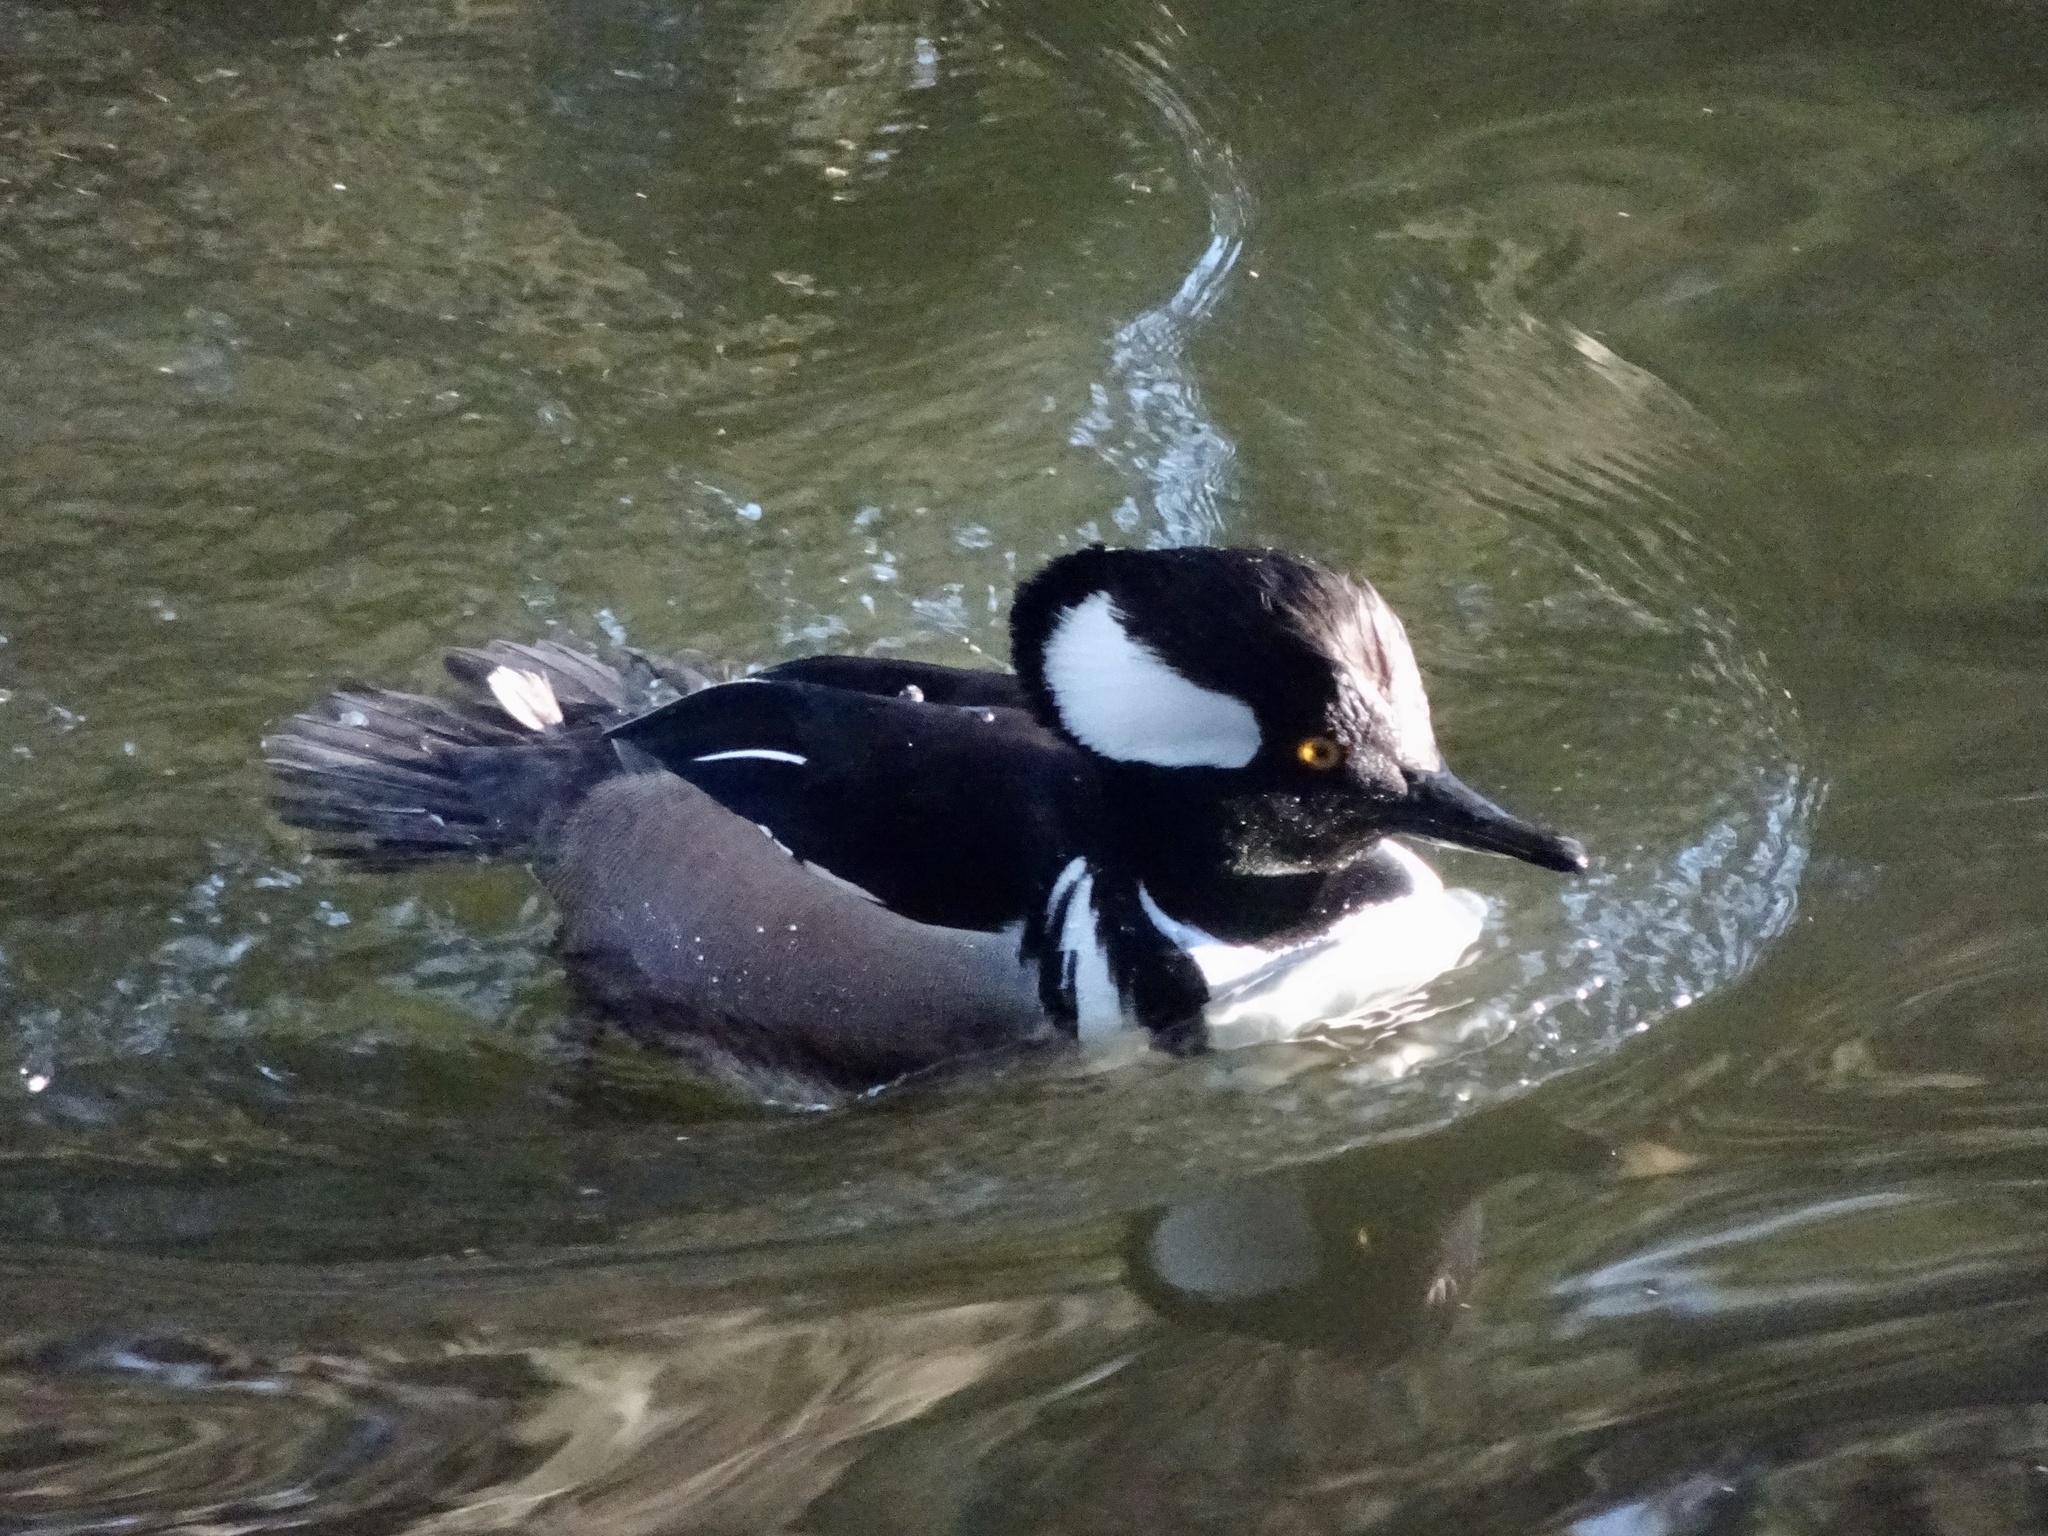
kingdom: Animalia
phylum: Chordata
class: Aves
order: Anseriformes
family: Anatidae
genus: Lophodytes
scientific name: Lophodytes cucullatus
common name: Hooded merganser
